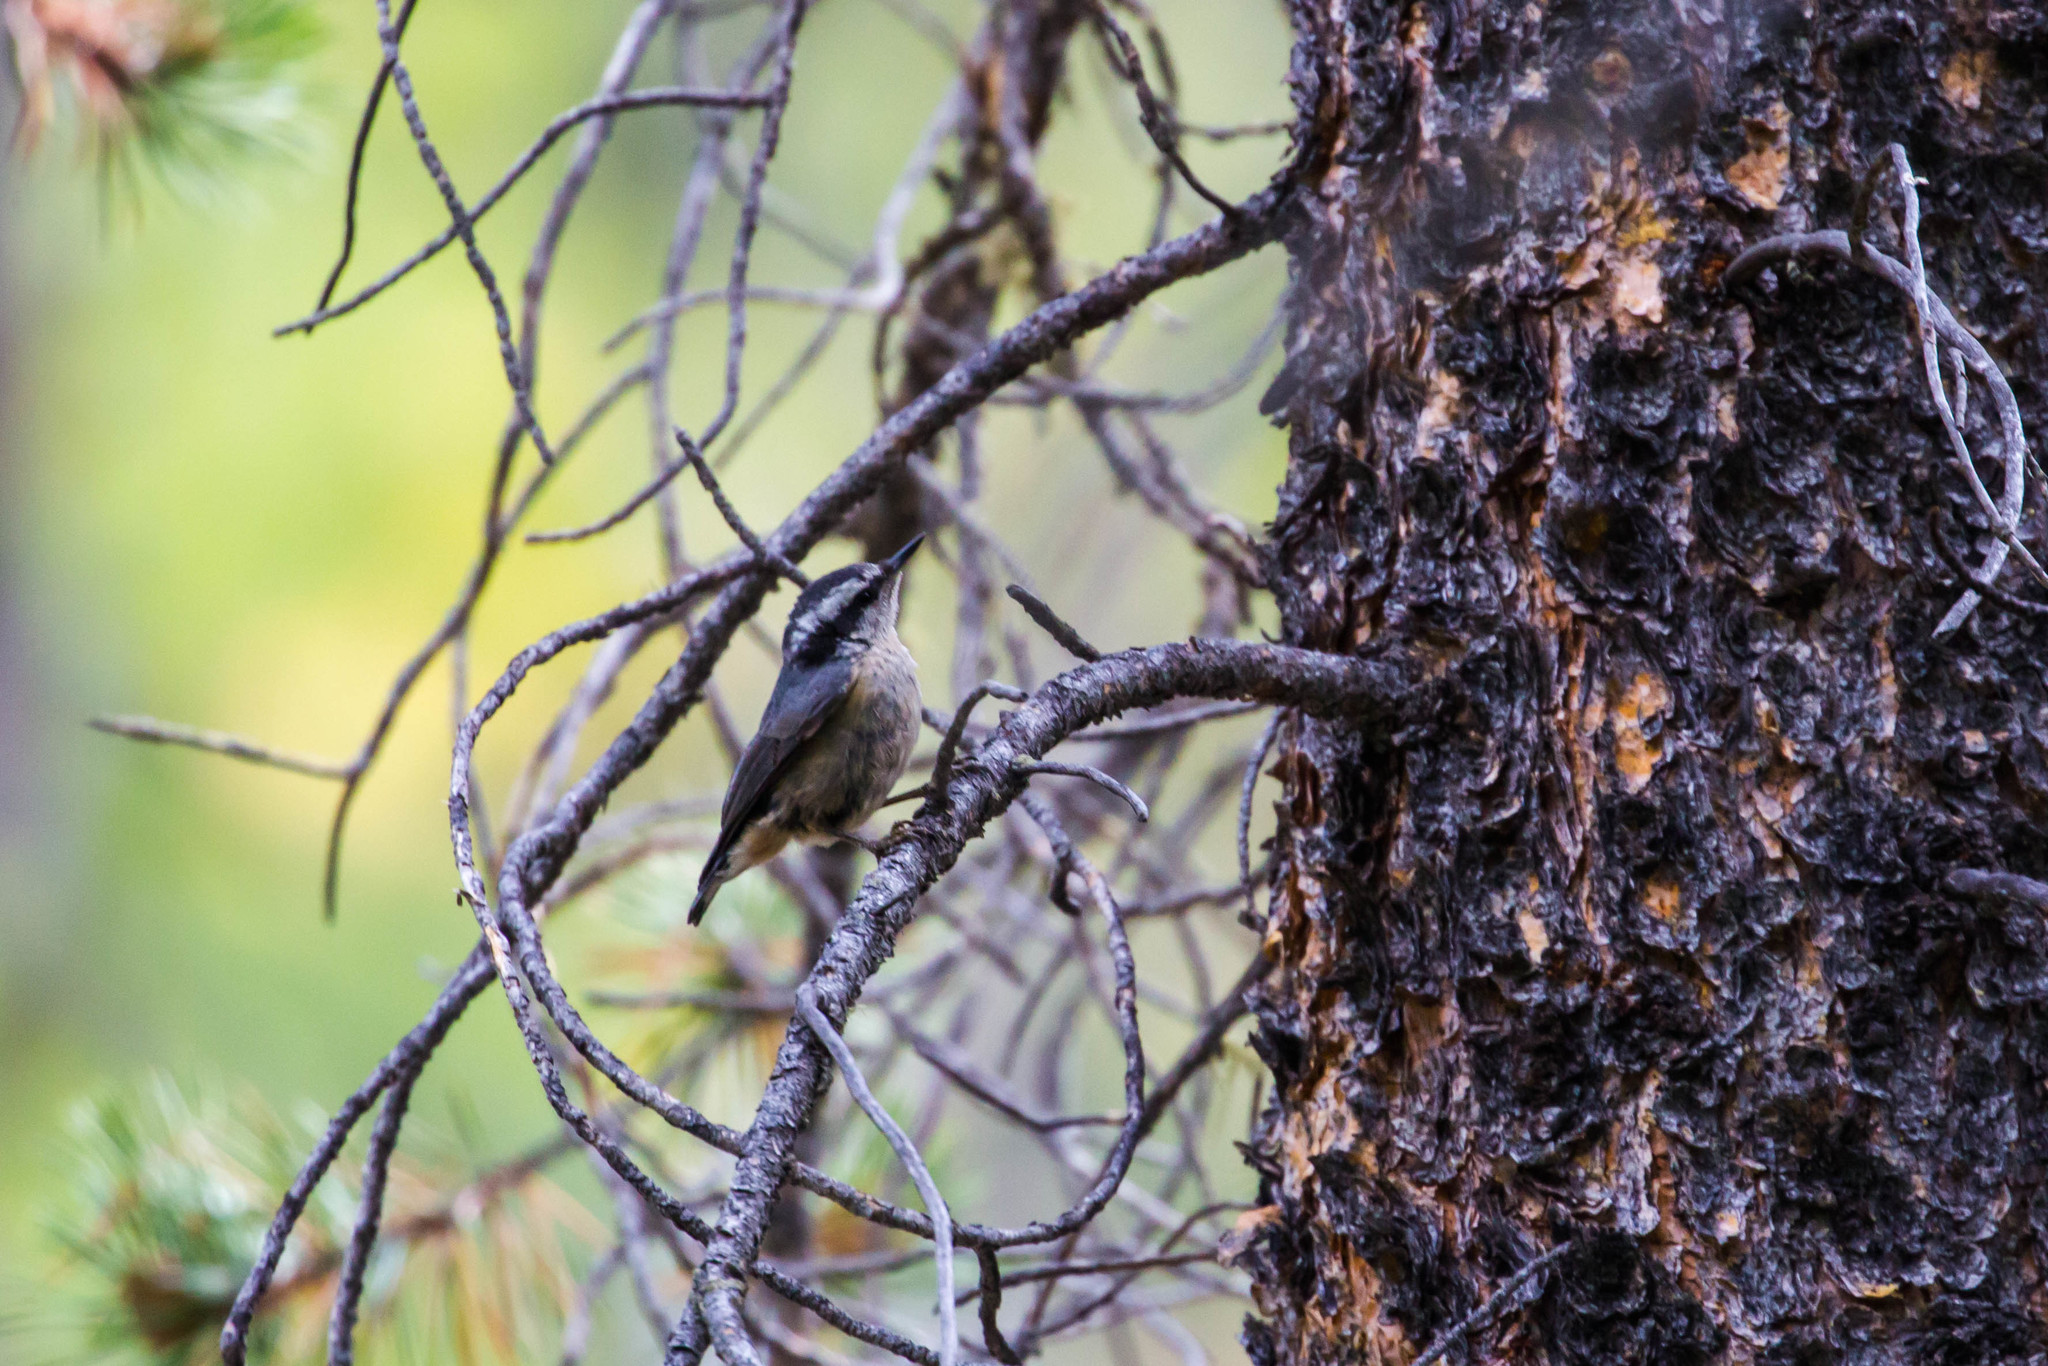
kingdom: Animalia
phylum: Chordata
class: Aves
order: Passeriformes
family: Sittidae
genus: Sitta
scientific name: Sitta canadensis
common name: Red-breasted nuthatch
